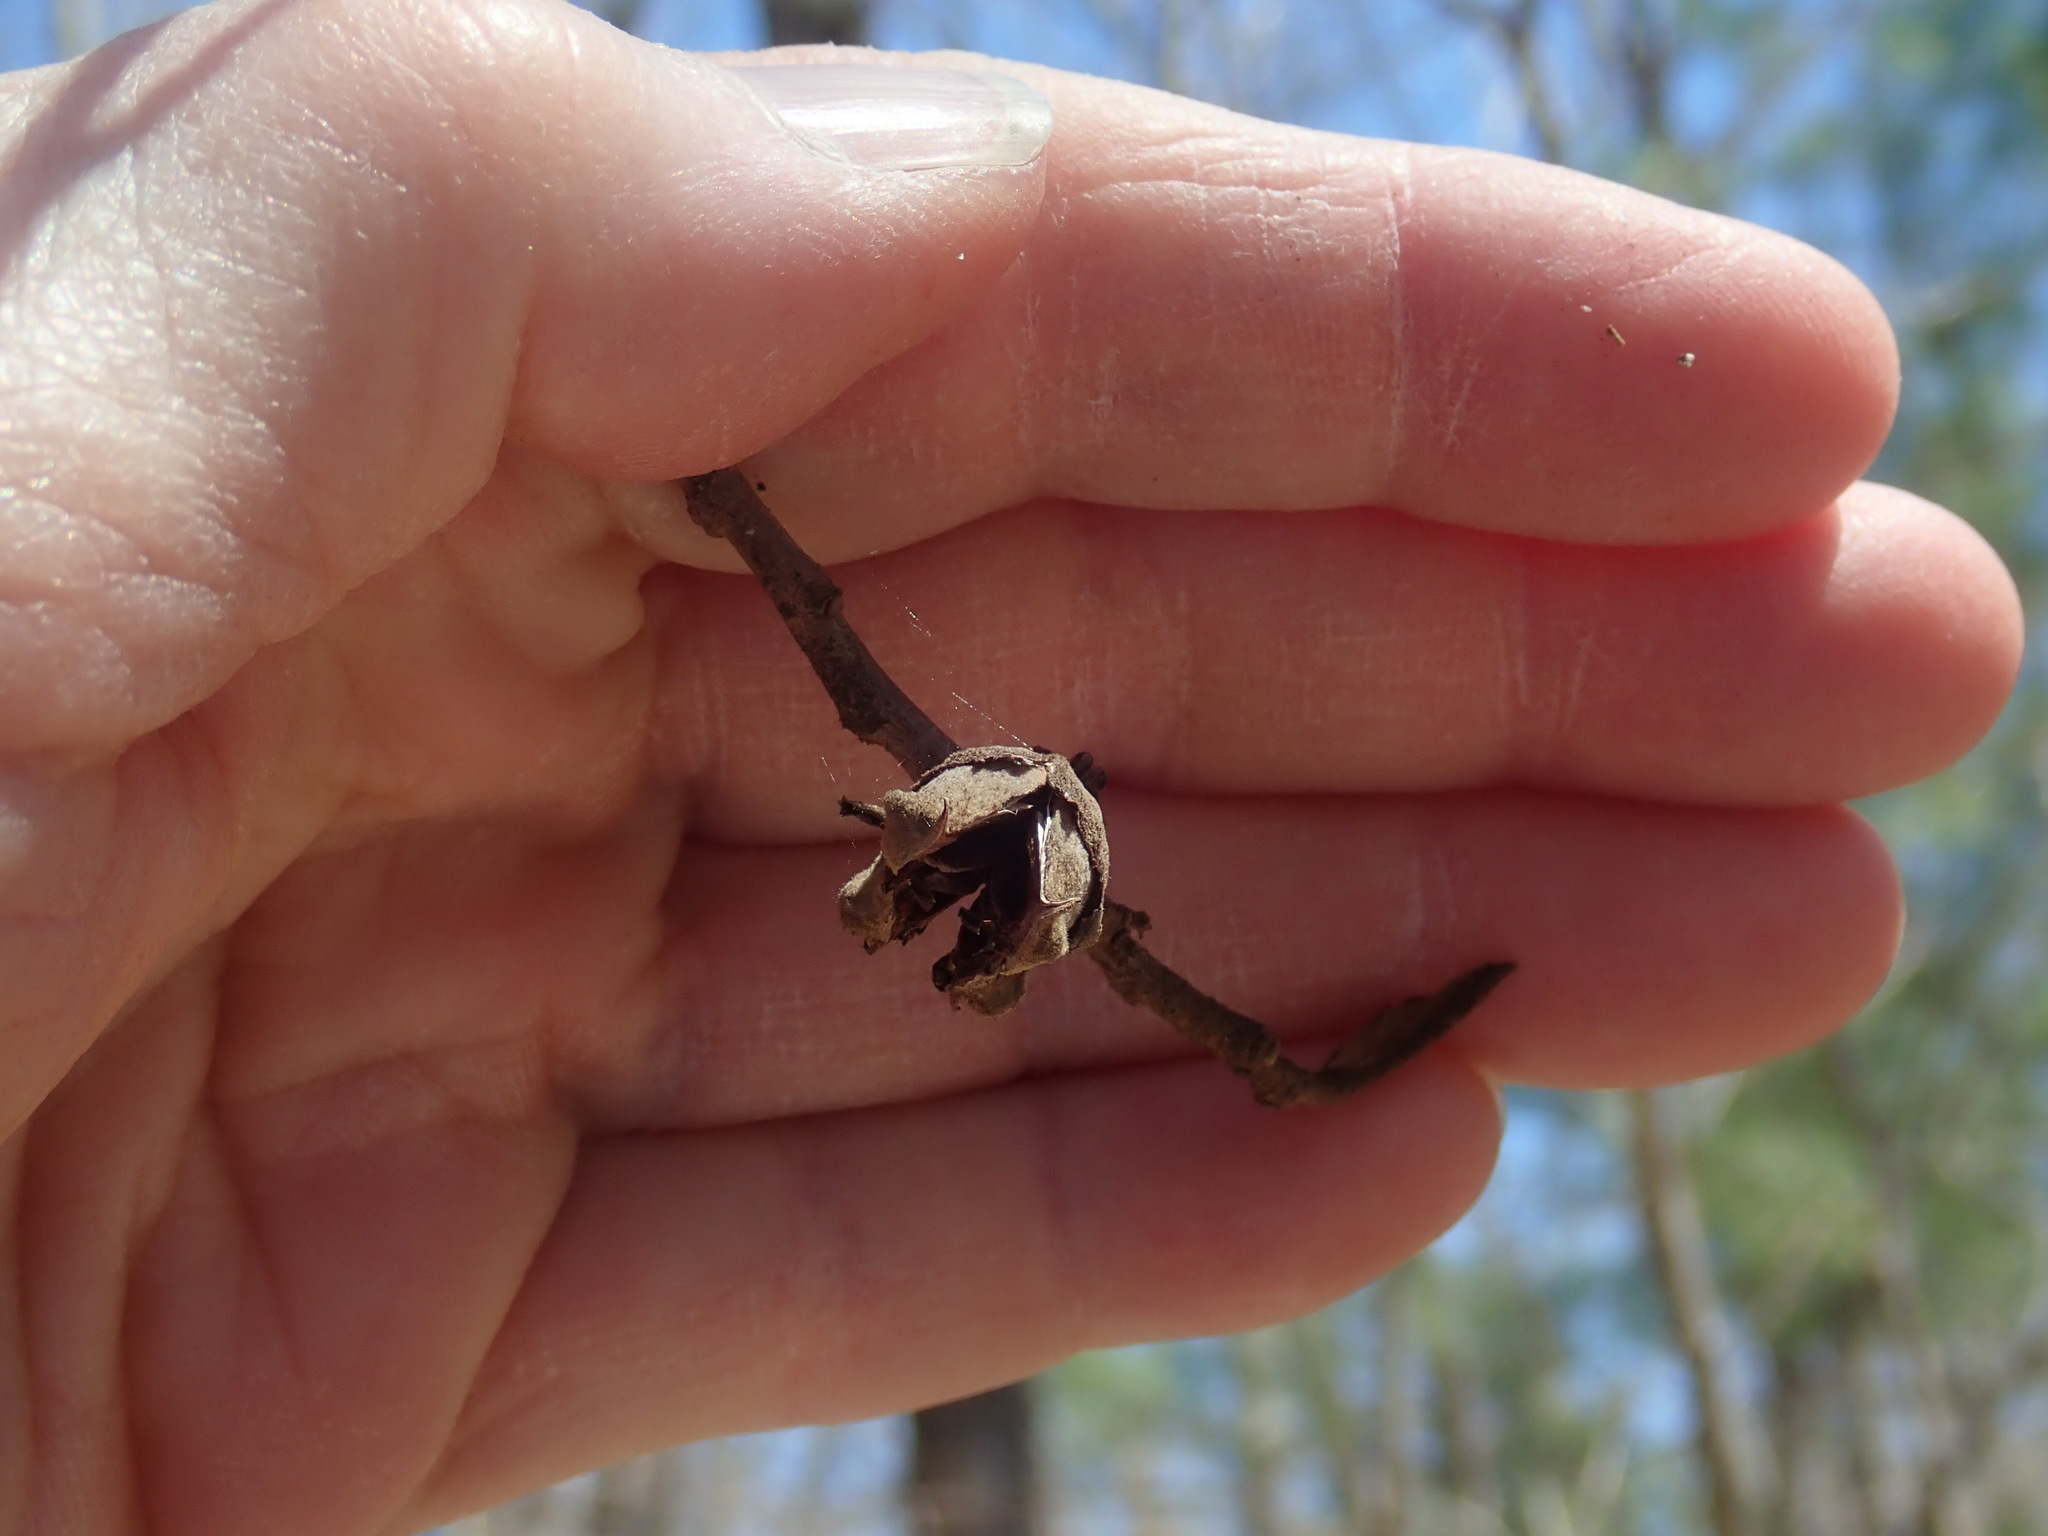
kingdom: Plantae
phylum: Tracheophyta
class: Magnoliopsida
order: Saxifragales
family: Hamamelidaceae
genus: Hamamelis
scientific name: Hamamelis virginiana
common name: Witch-hazel
